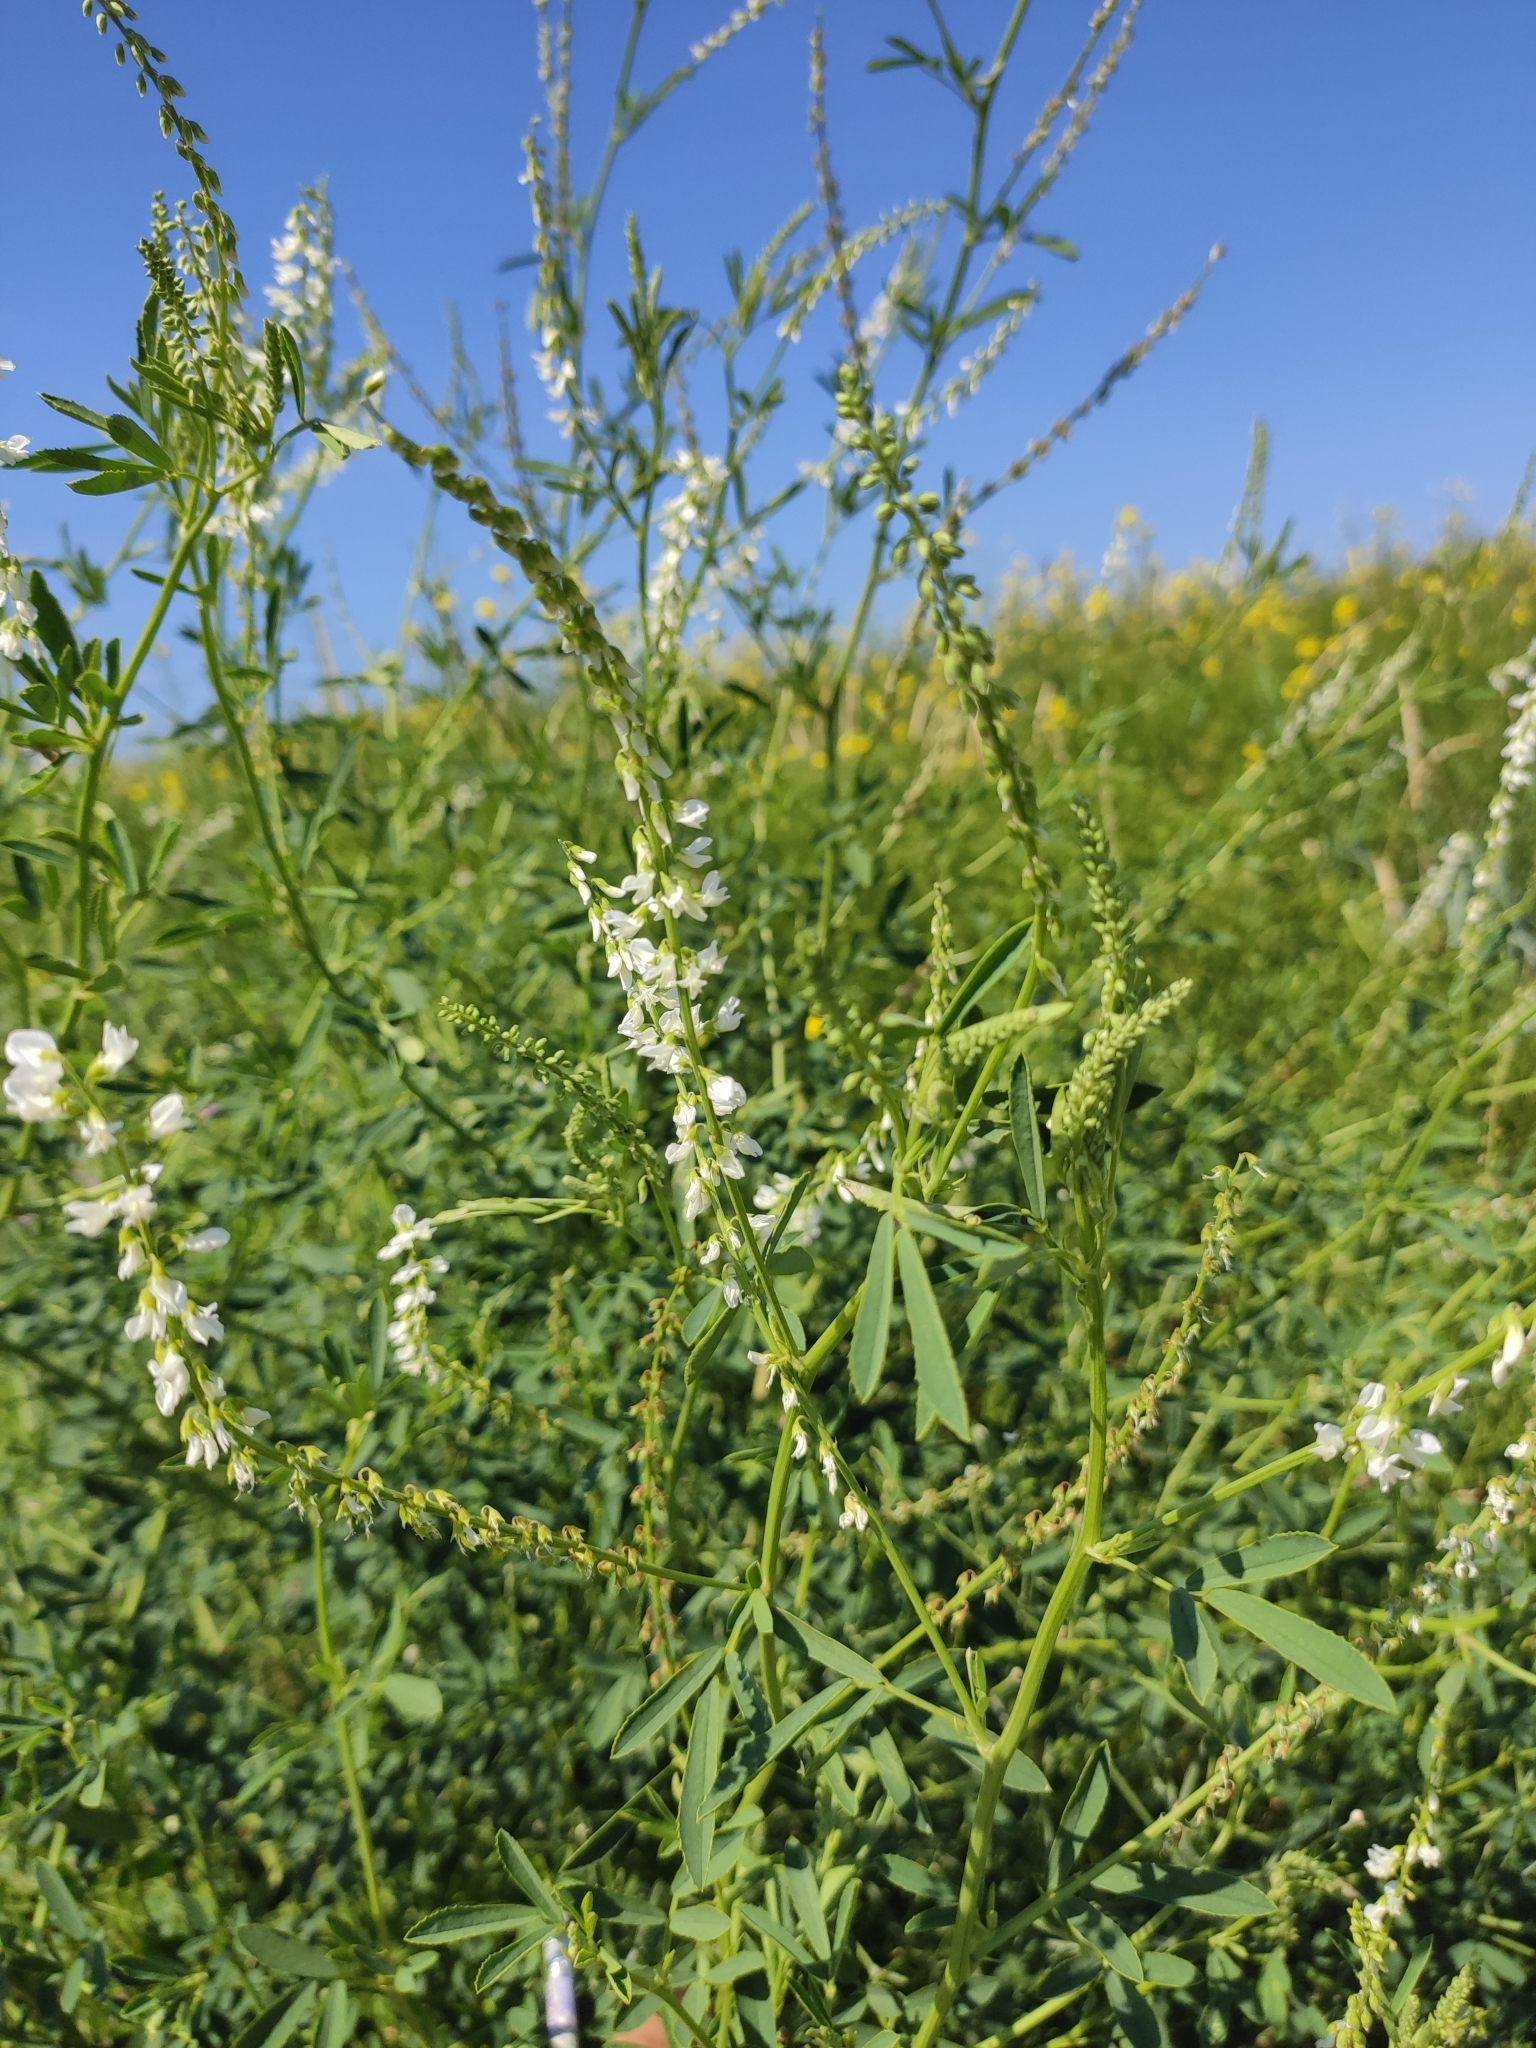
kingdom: Plantae
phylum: Tracheophyta
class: Magnoliopsida
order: Fabales
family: Fabaceae
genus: Melilotus
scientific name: Melilotus albus
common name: White melilot
